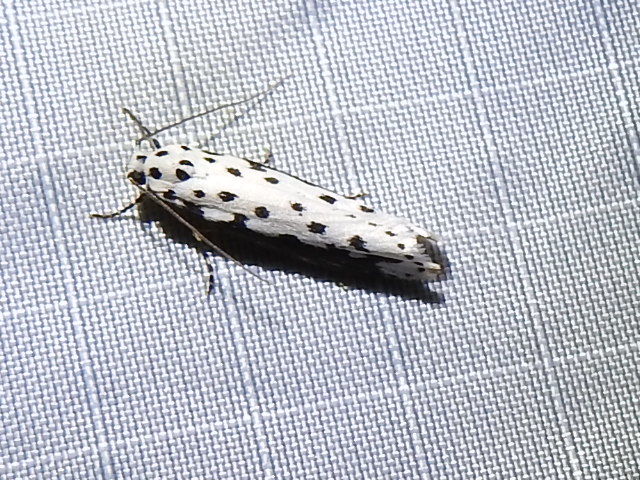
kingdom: Animalia
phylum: Arthropoda
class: Insecta
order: Lepidoptera
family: Ethmiidae
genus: Ethmia
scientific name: Ethmia hagenella
